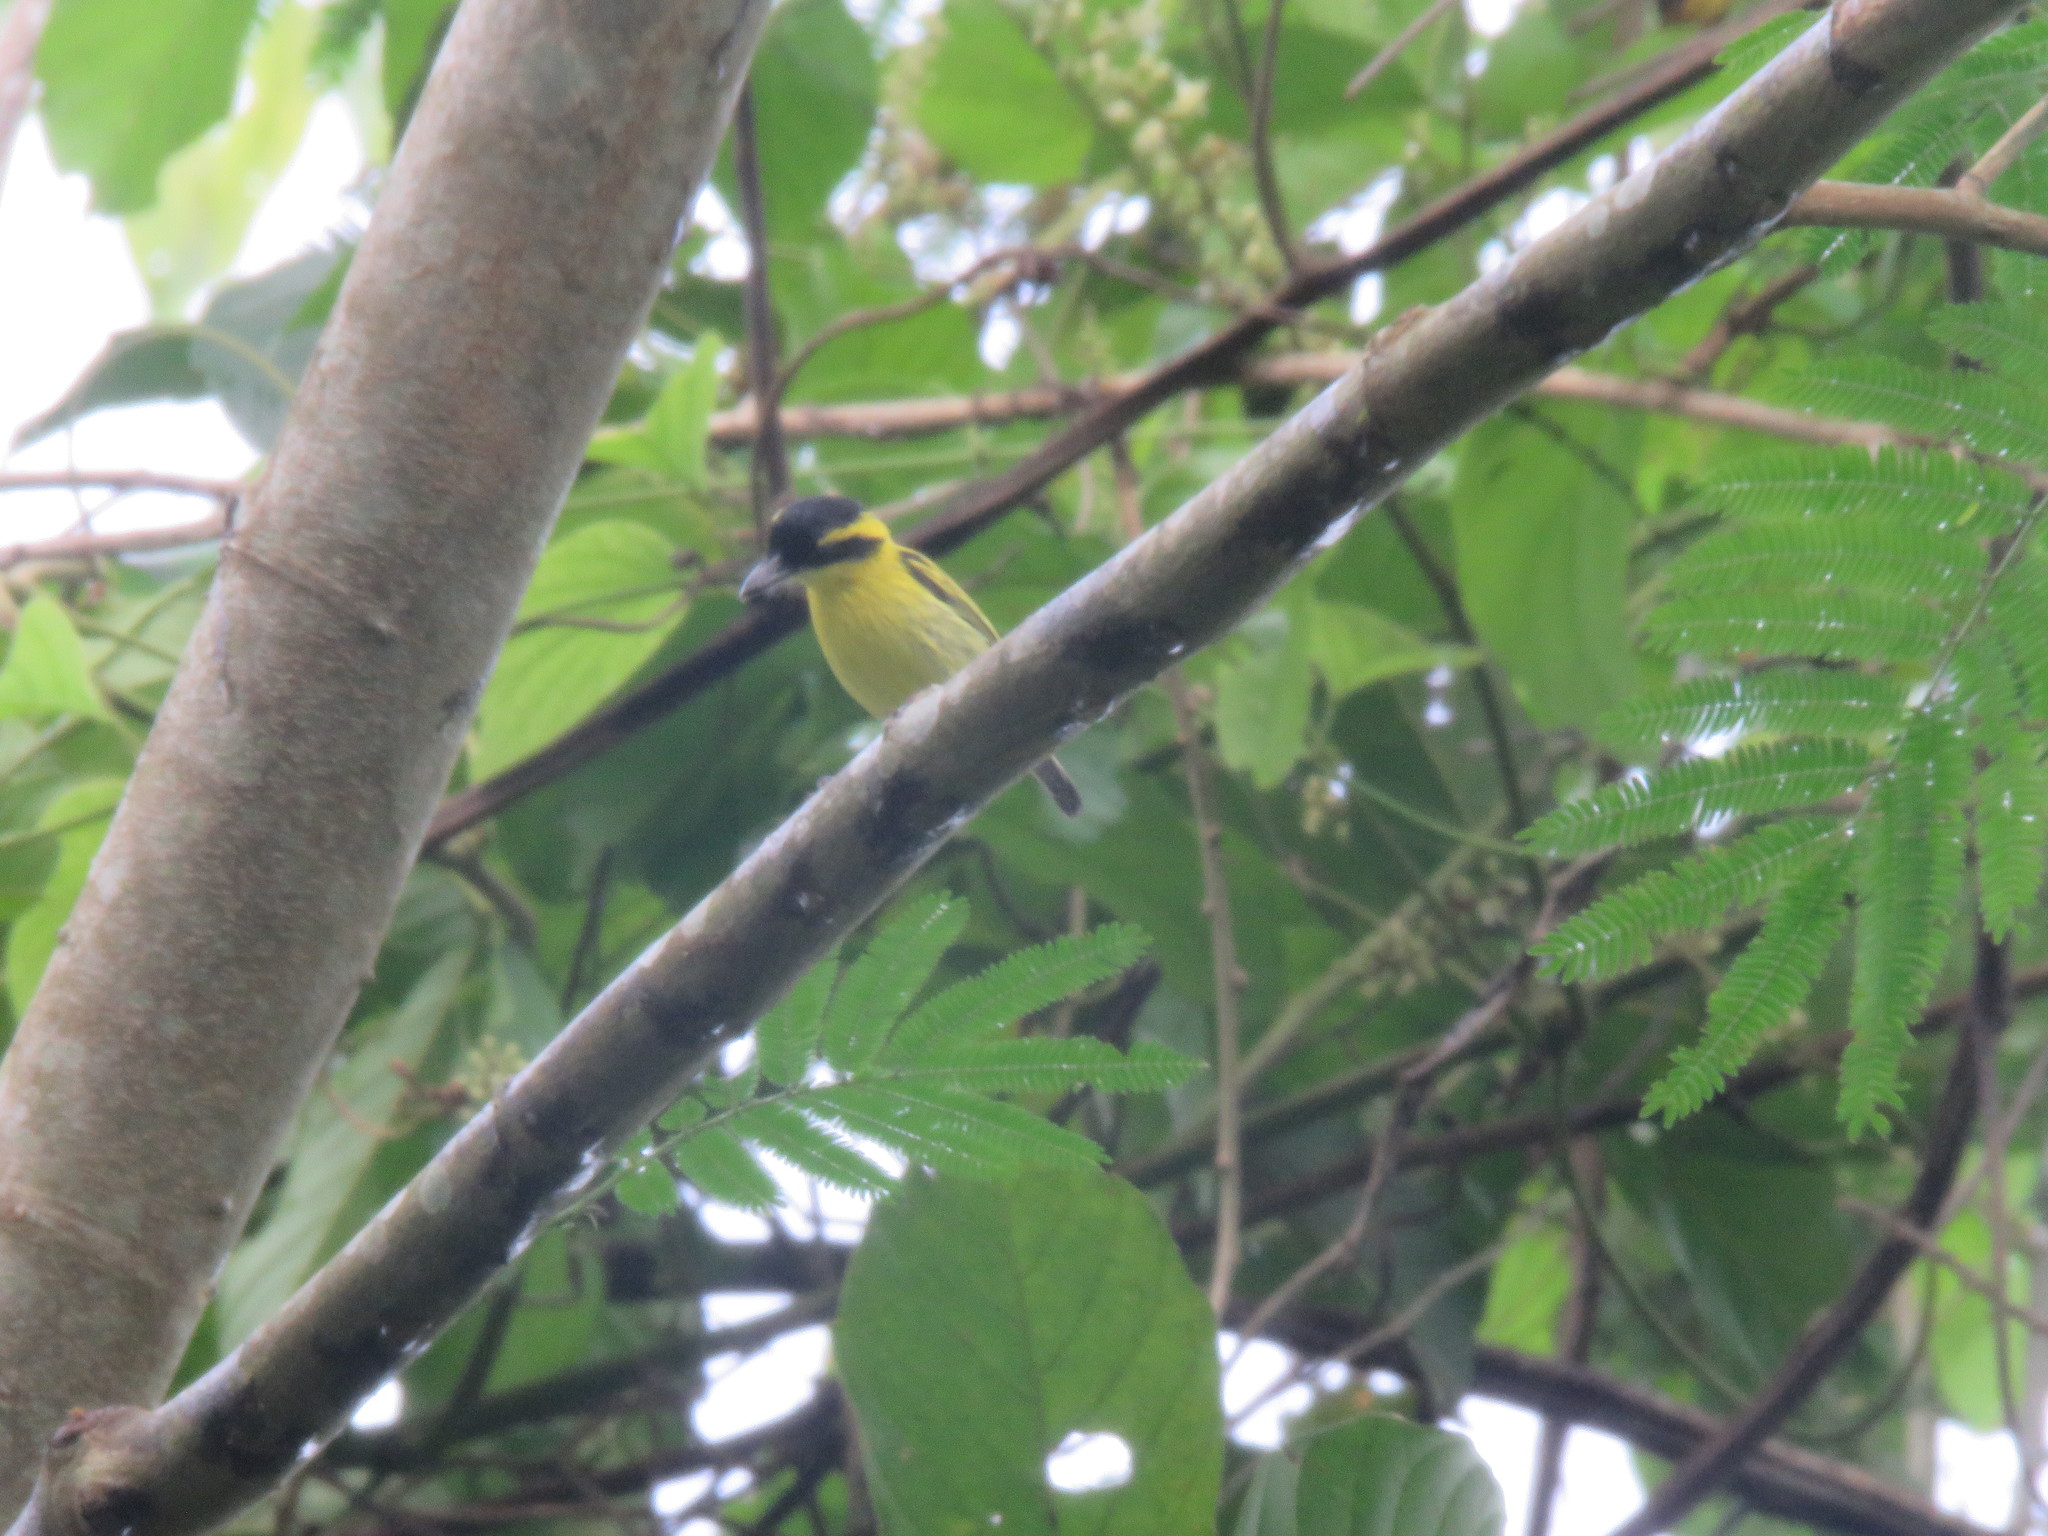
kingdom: Animalia
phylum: Chordata
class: Aves
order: Passeriformes
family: Tyrannidae
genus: Todirostrum
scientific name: Todirostrum chrysocrotaphum
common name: Yellow-browed tody-flycatcher
